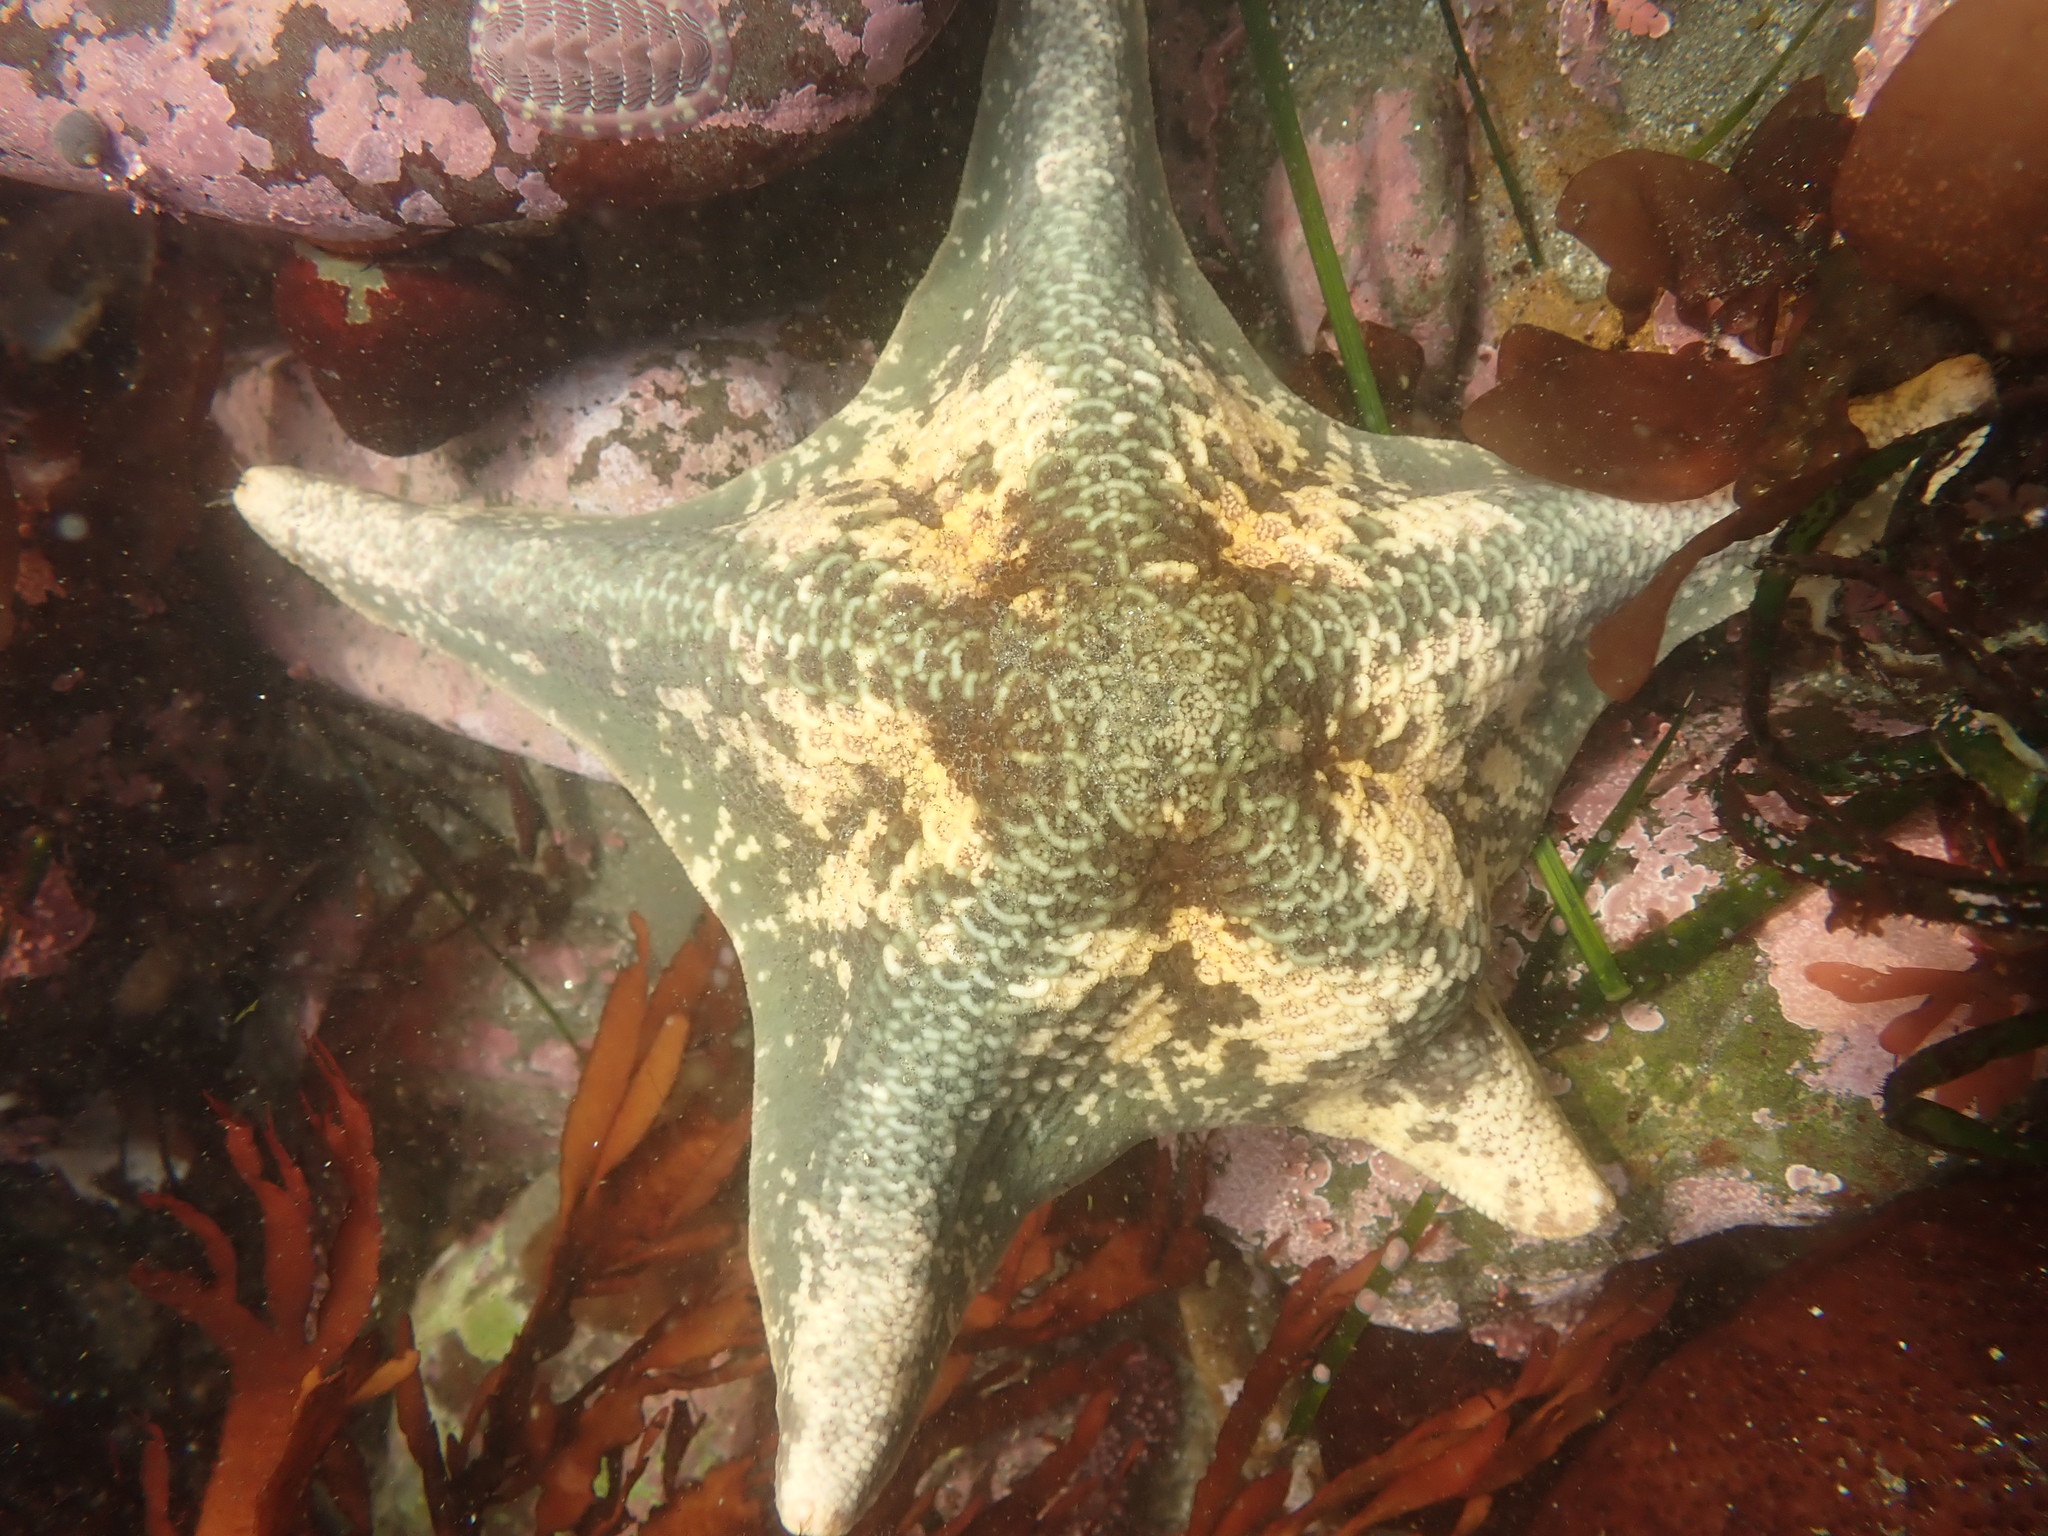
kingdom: Animalia
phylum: Echinodermata
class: Asteroidea
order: Valvatida
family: Asterinidae
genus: Patiria
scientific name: Patiria miniata
